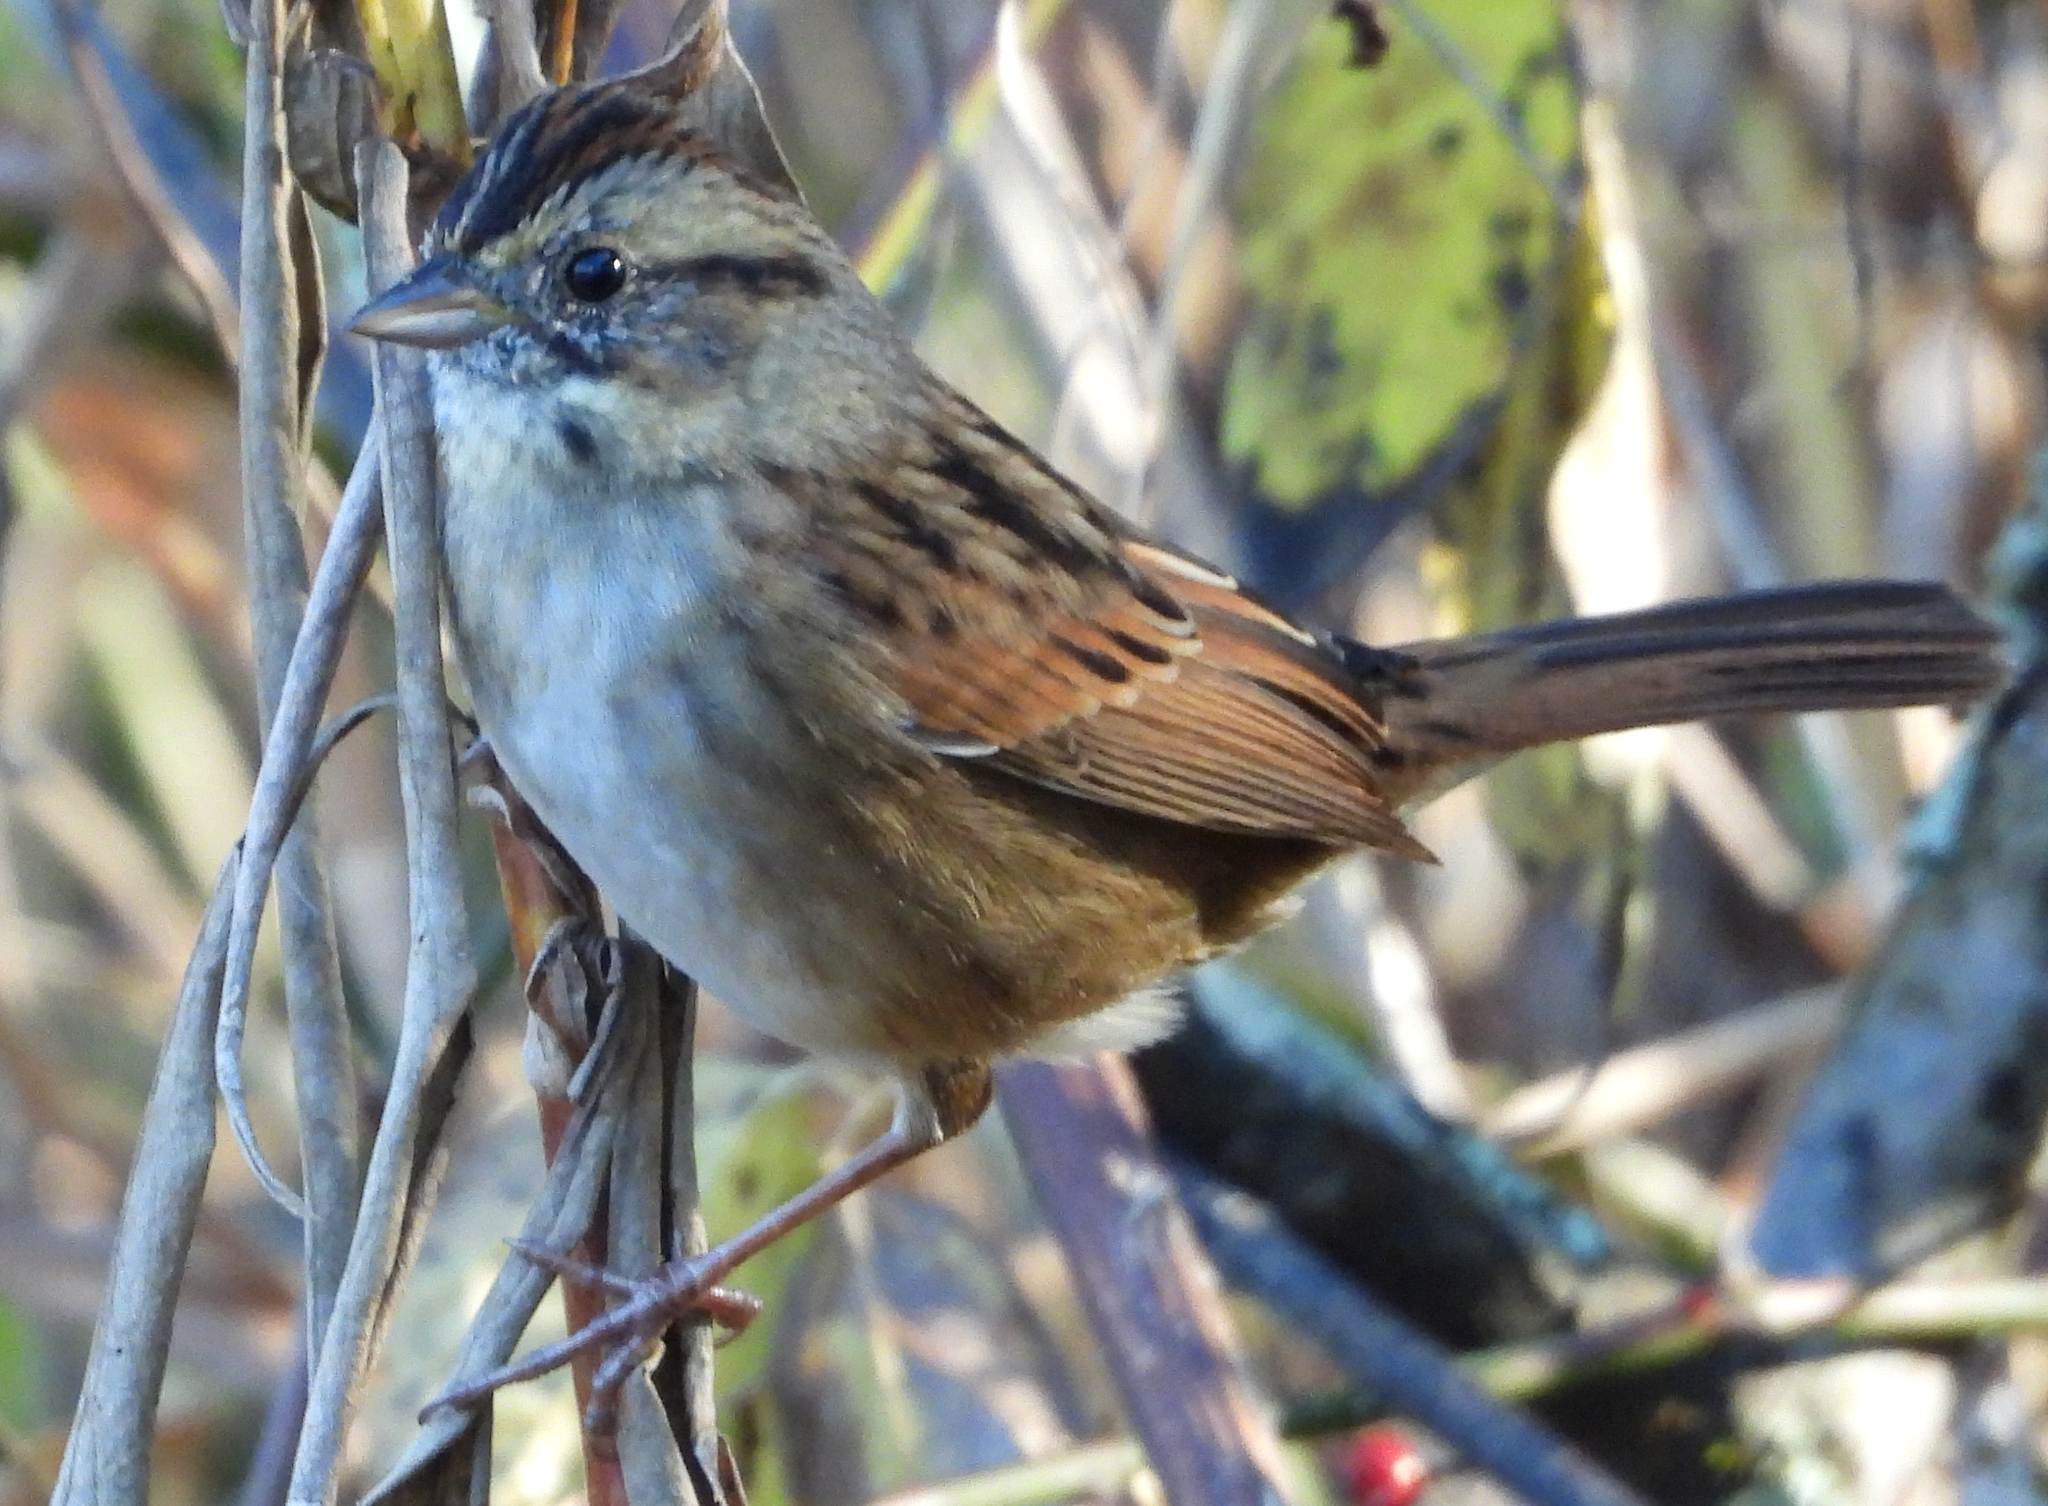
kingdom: Animalia
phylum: Chordata
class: Aves
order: Passeriformes
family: Passerellidae
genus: Melospiza
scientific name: Melospiza georgiana
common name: Swamp sparrow
